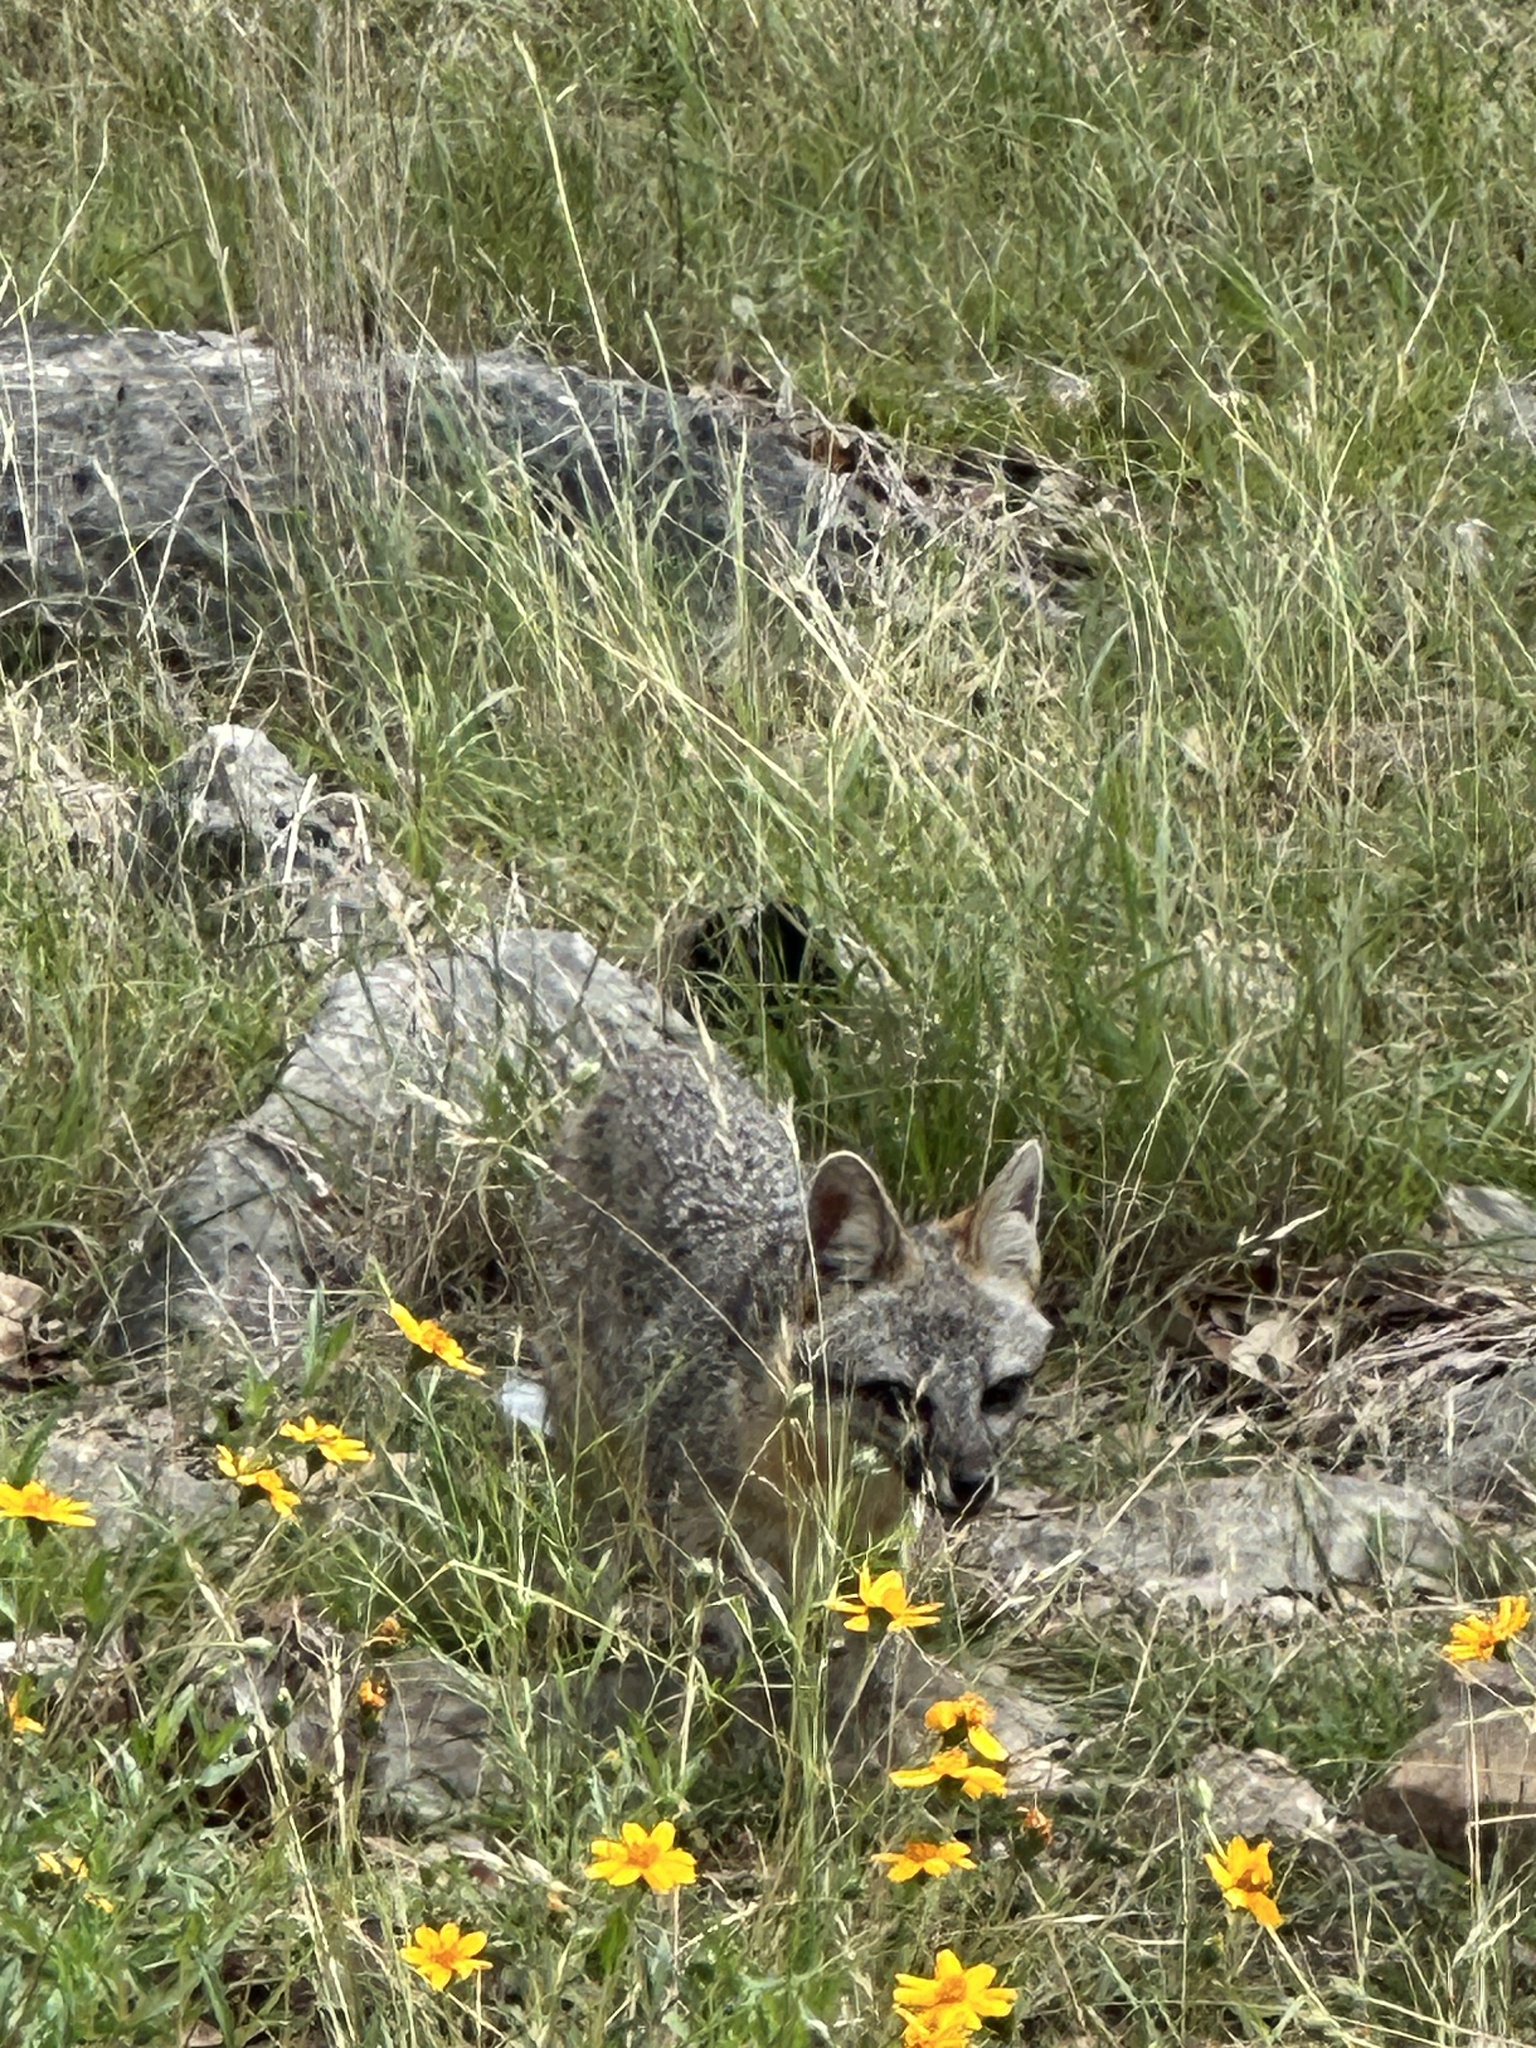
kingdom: Animalia
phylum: Chordata
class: Mammalia
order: Carnivora
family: Canidae
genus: Urocyon
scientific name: Urocyon cinereoargenteus
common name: Gray fox
